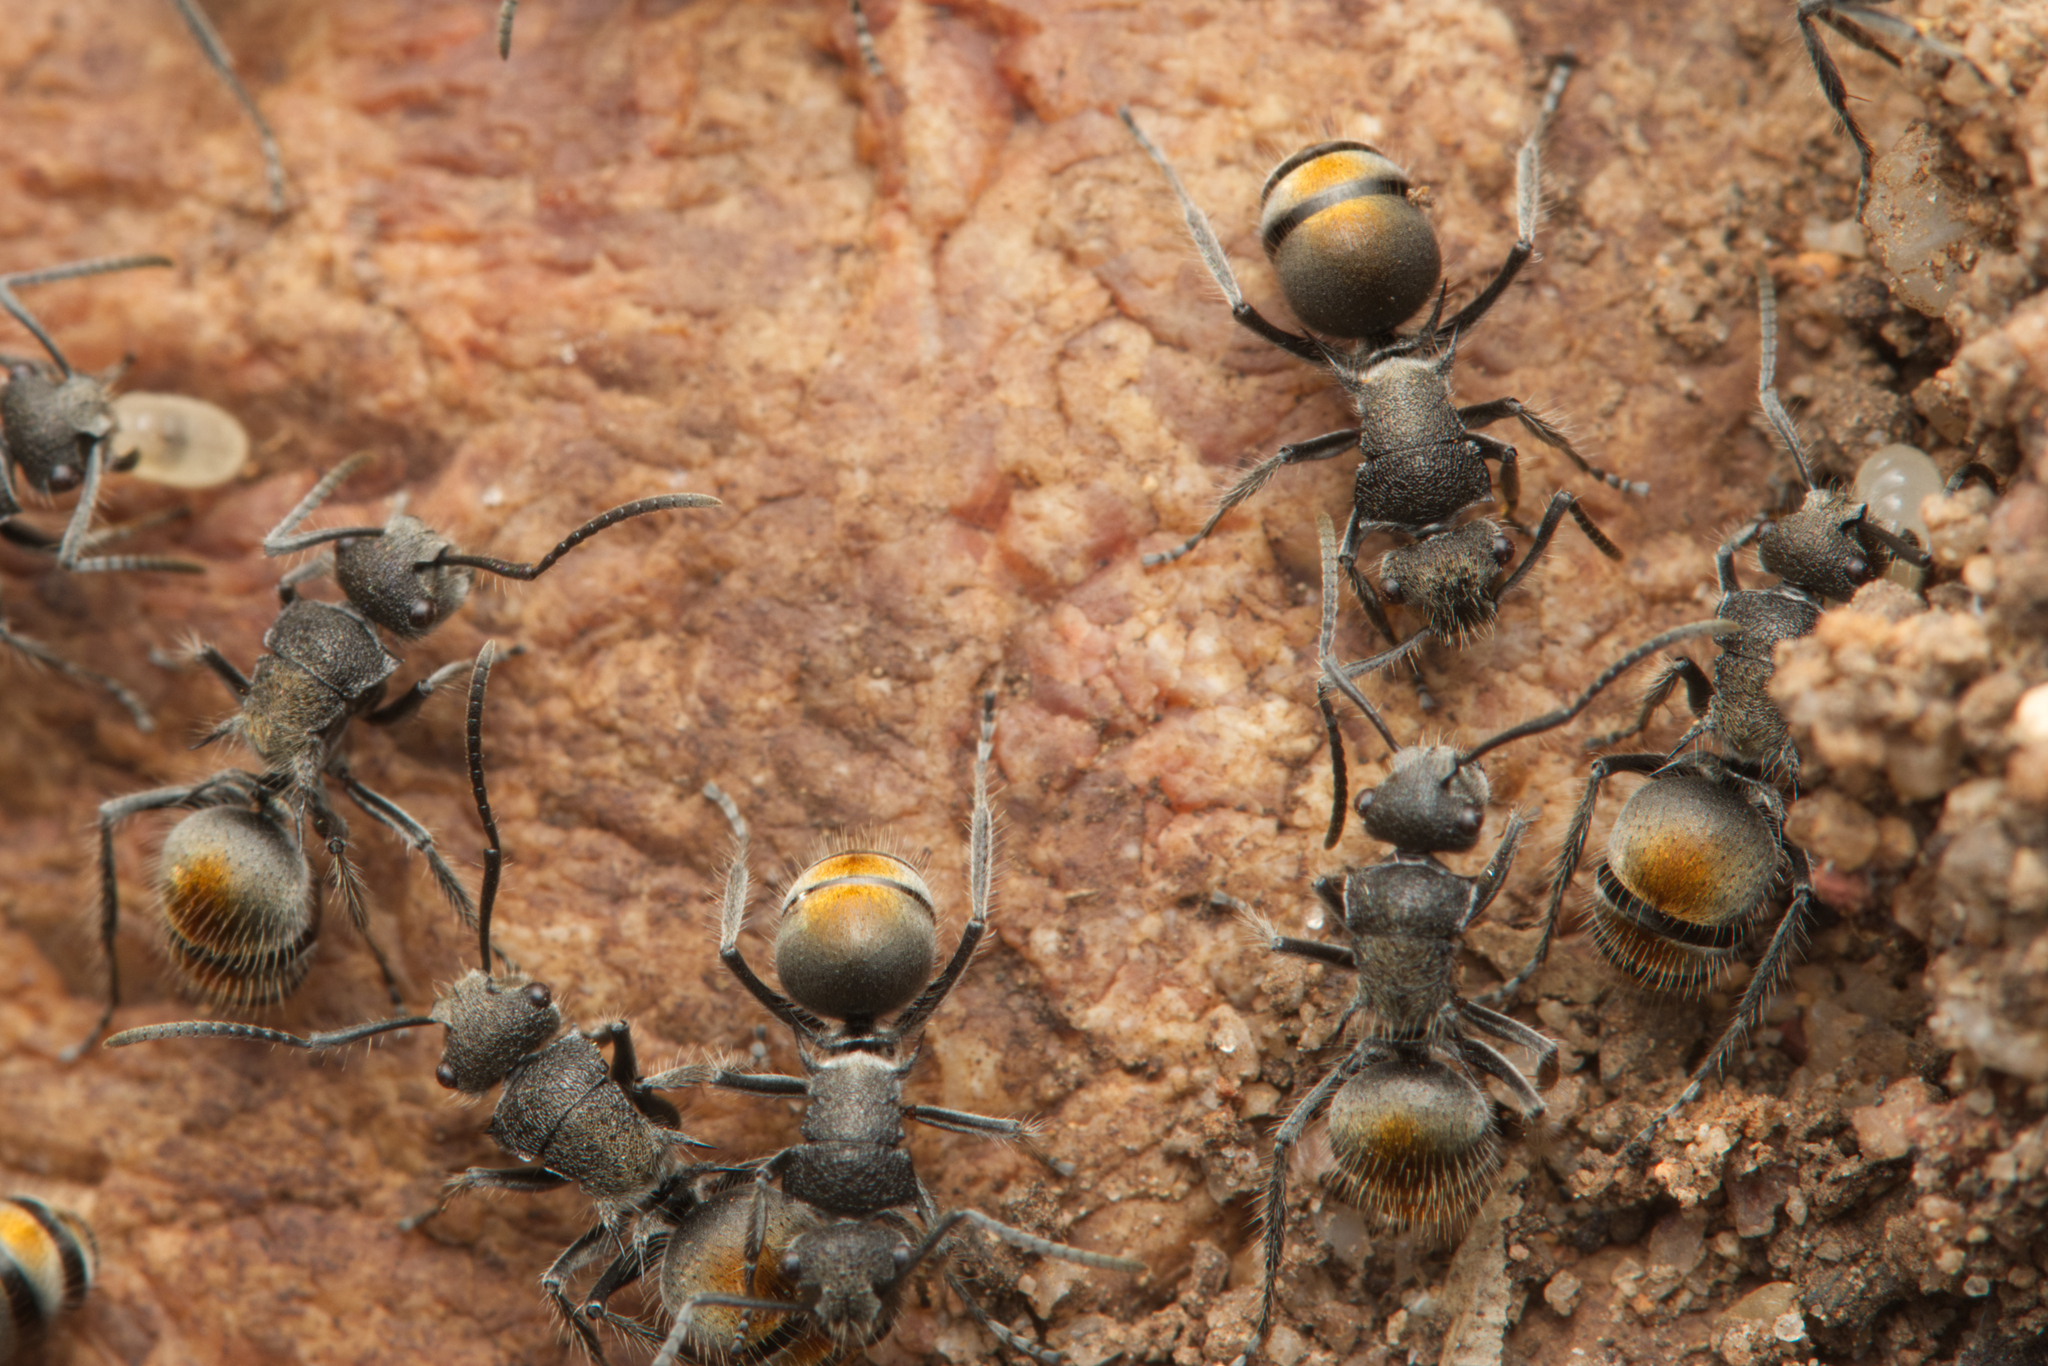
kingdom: Animalia
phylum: Arthropoda
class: Insecta
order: Hymenoptera
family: Formicidae
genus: Polyrhachis
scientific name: Polyrhachis vermiculosa
